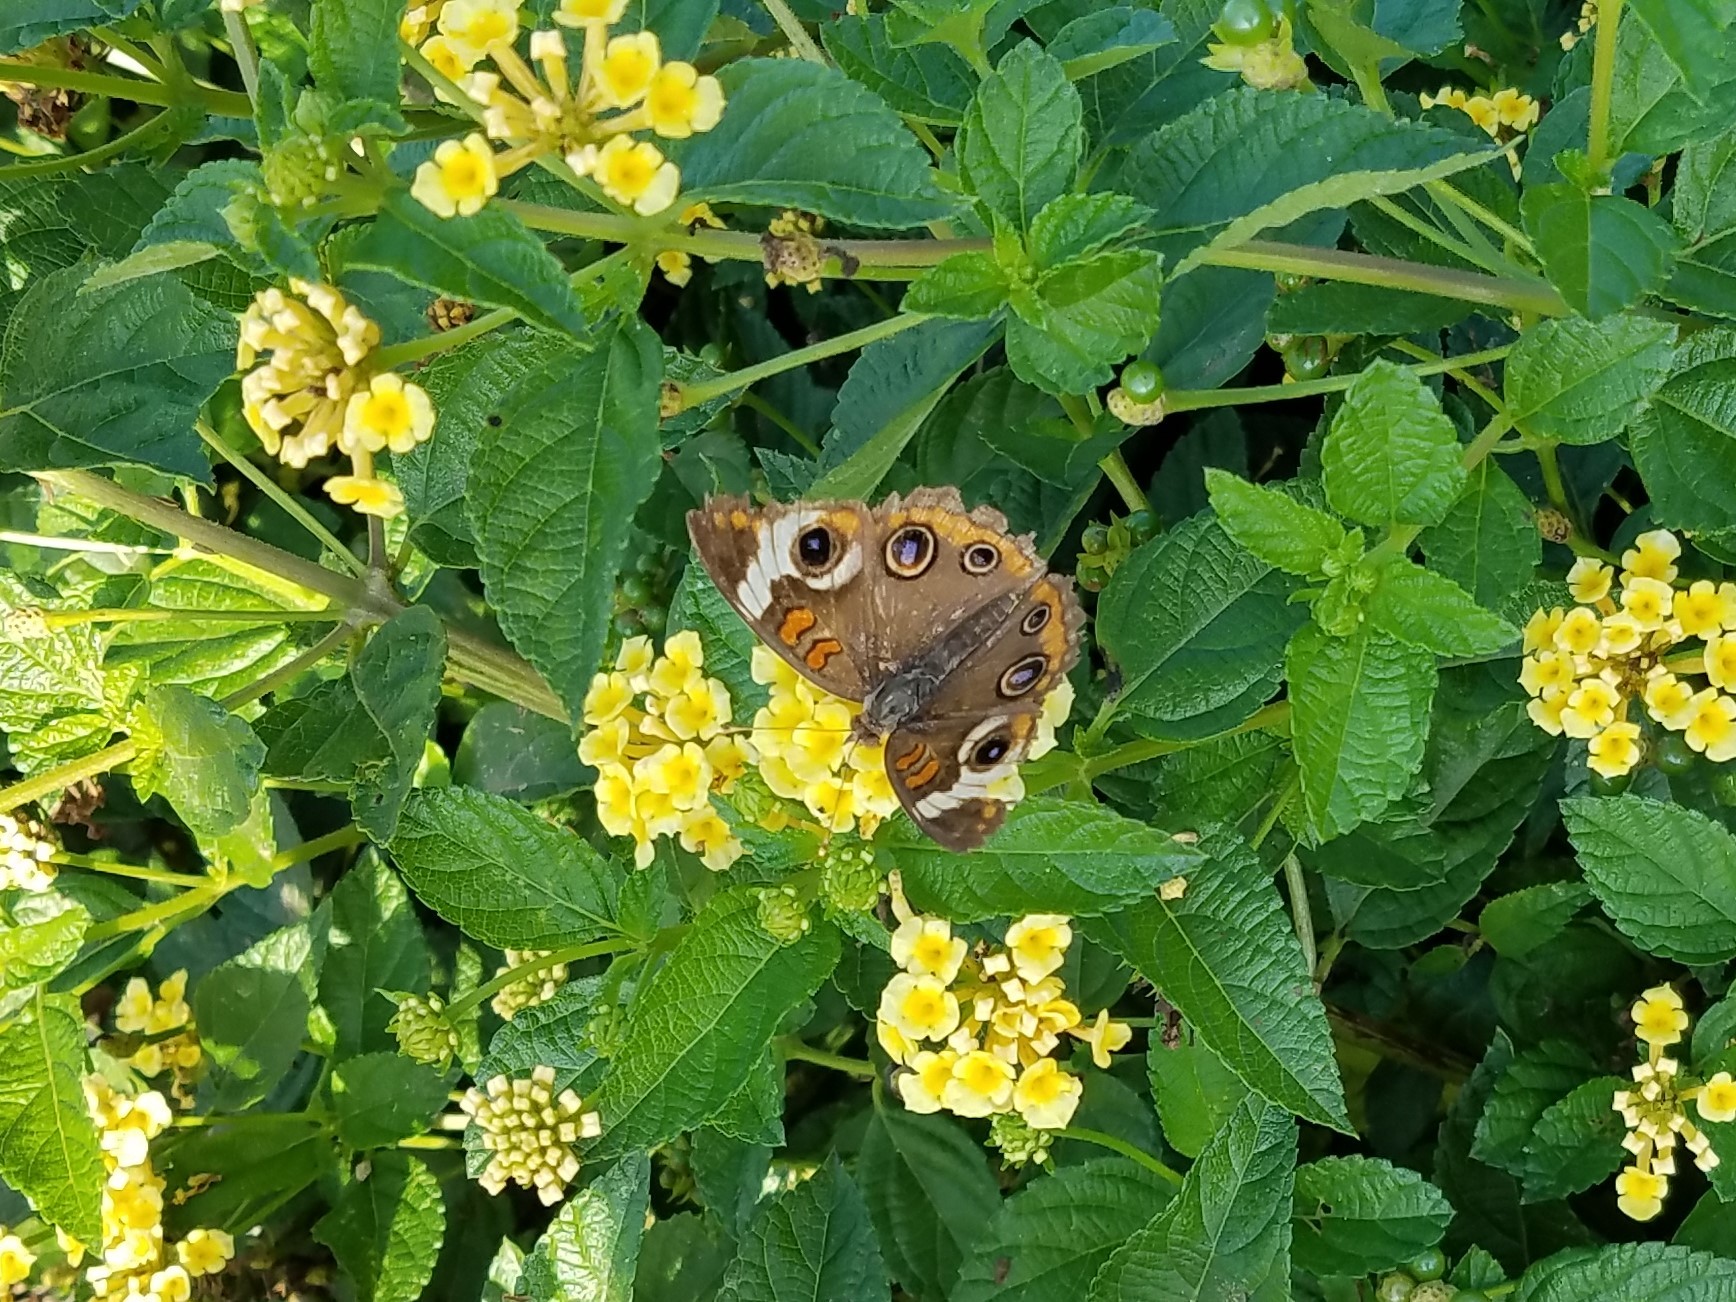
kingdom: Animalia
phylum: Arthropoda
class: Insecta
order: Lepidoptera
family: Nymphalidae
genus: Junonia
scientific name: Junonia coenia
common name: Common buckeye
